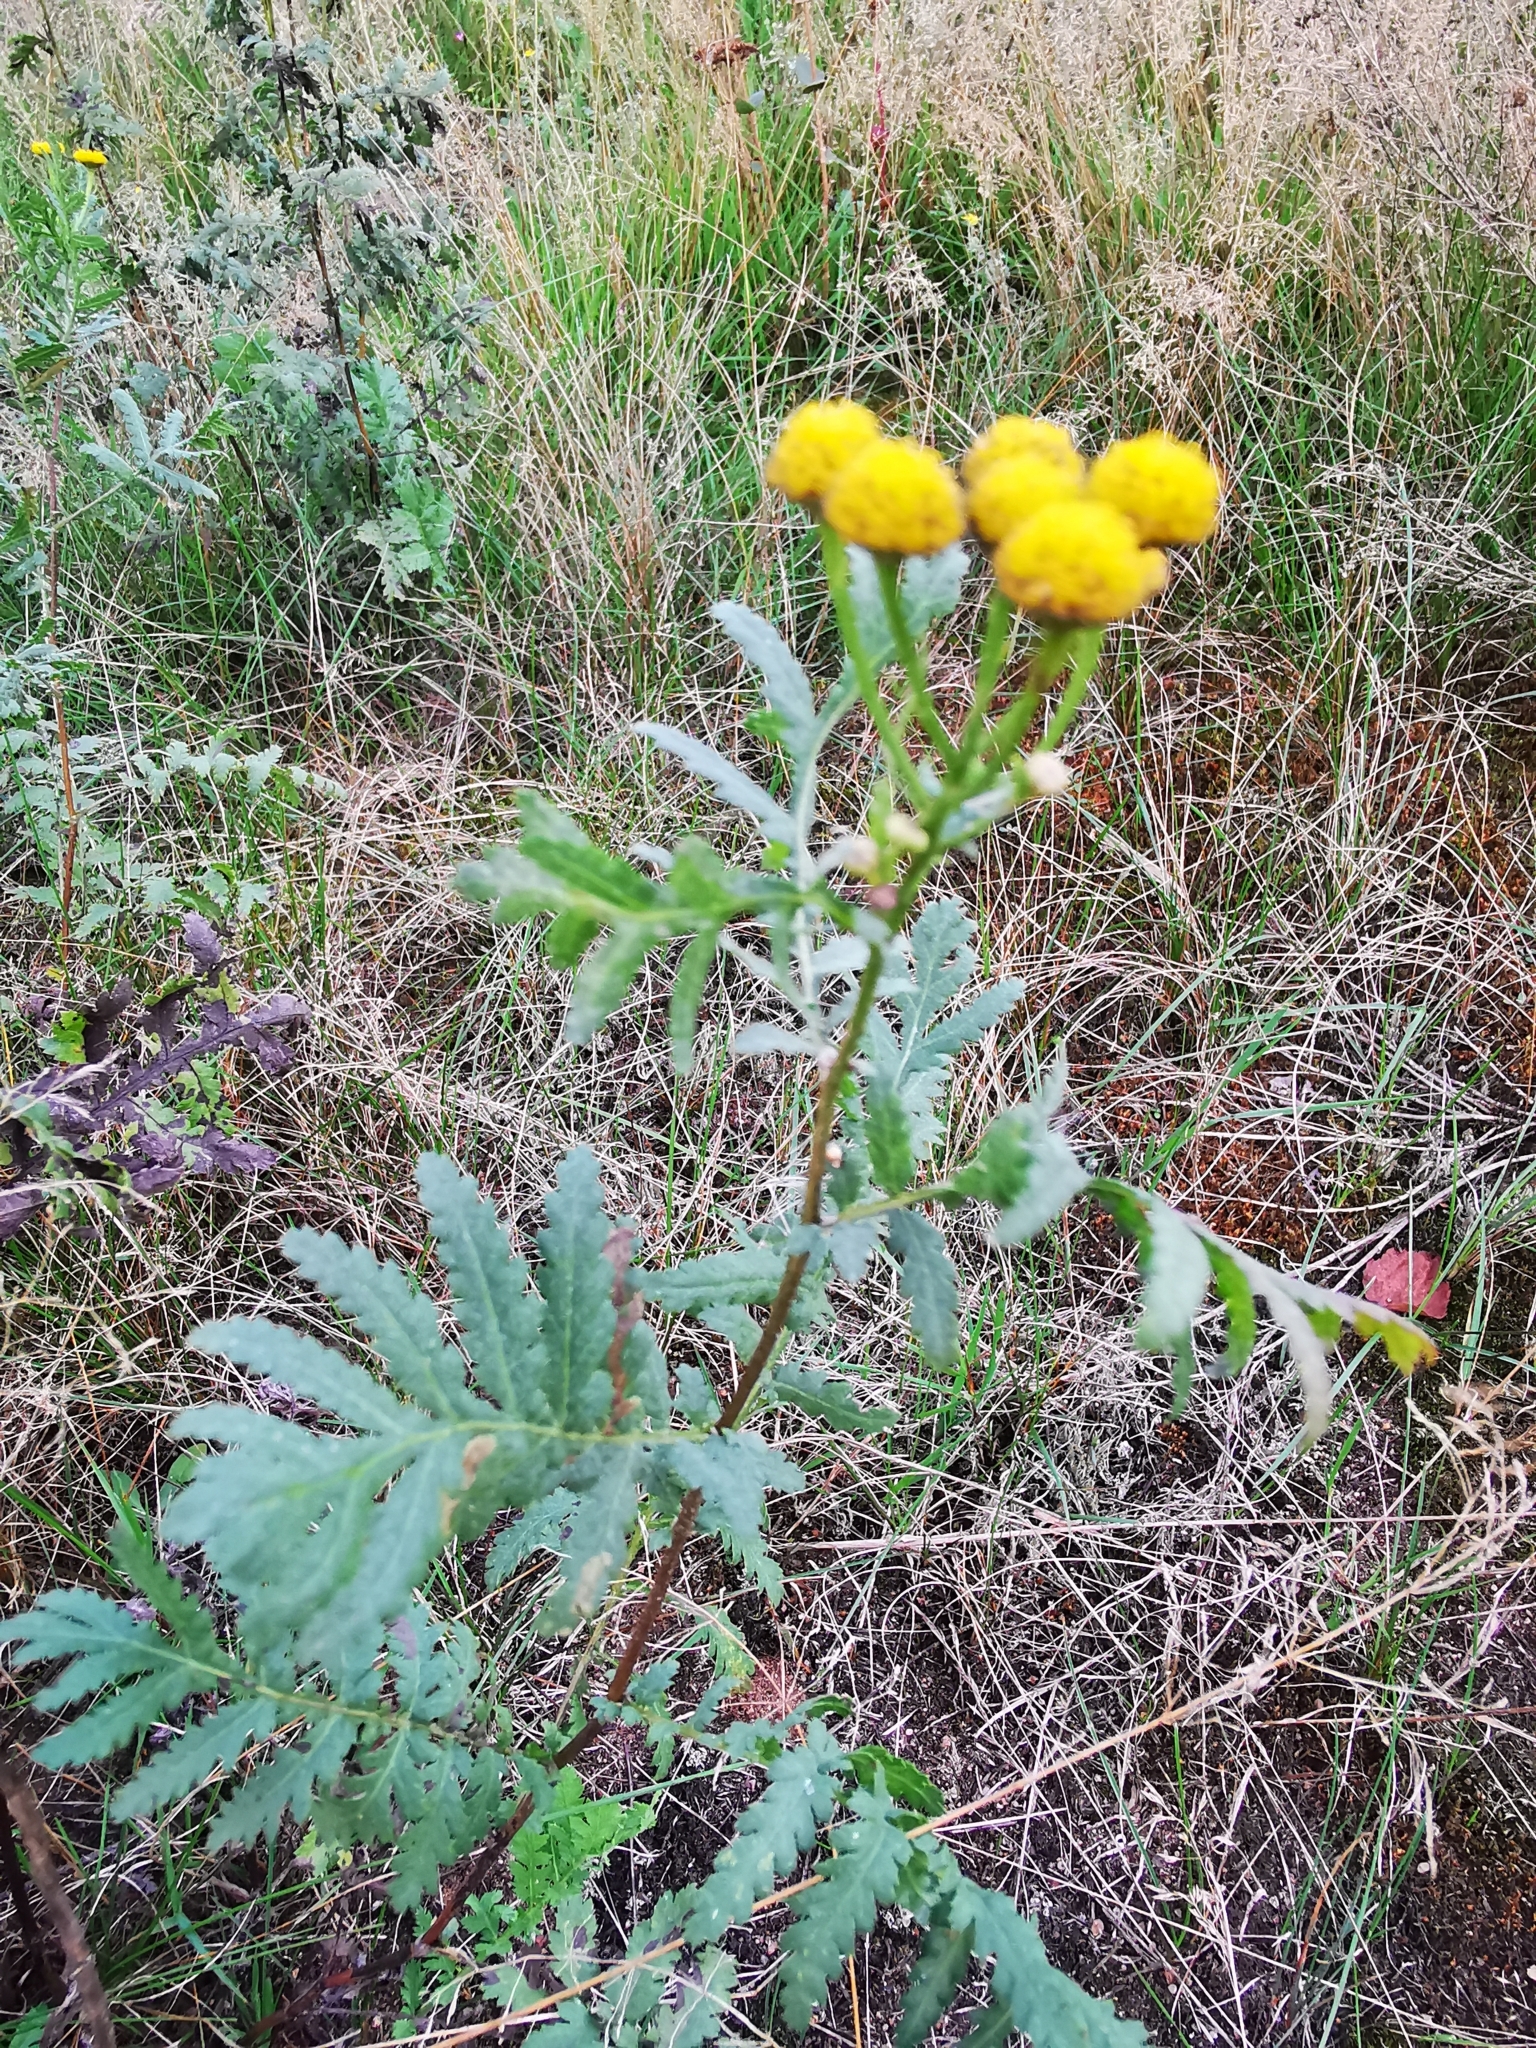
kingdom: Plantae
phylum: Tracheophyta
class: Magnoliopsida
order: Asterales
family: Asteraceae
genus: Tanacetum
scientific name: Tanacetum vulgare
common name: Common tansy
